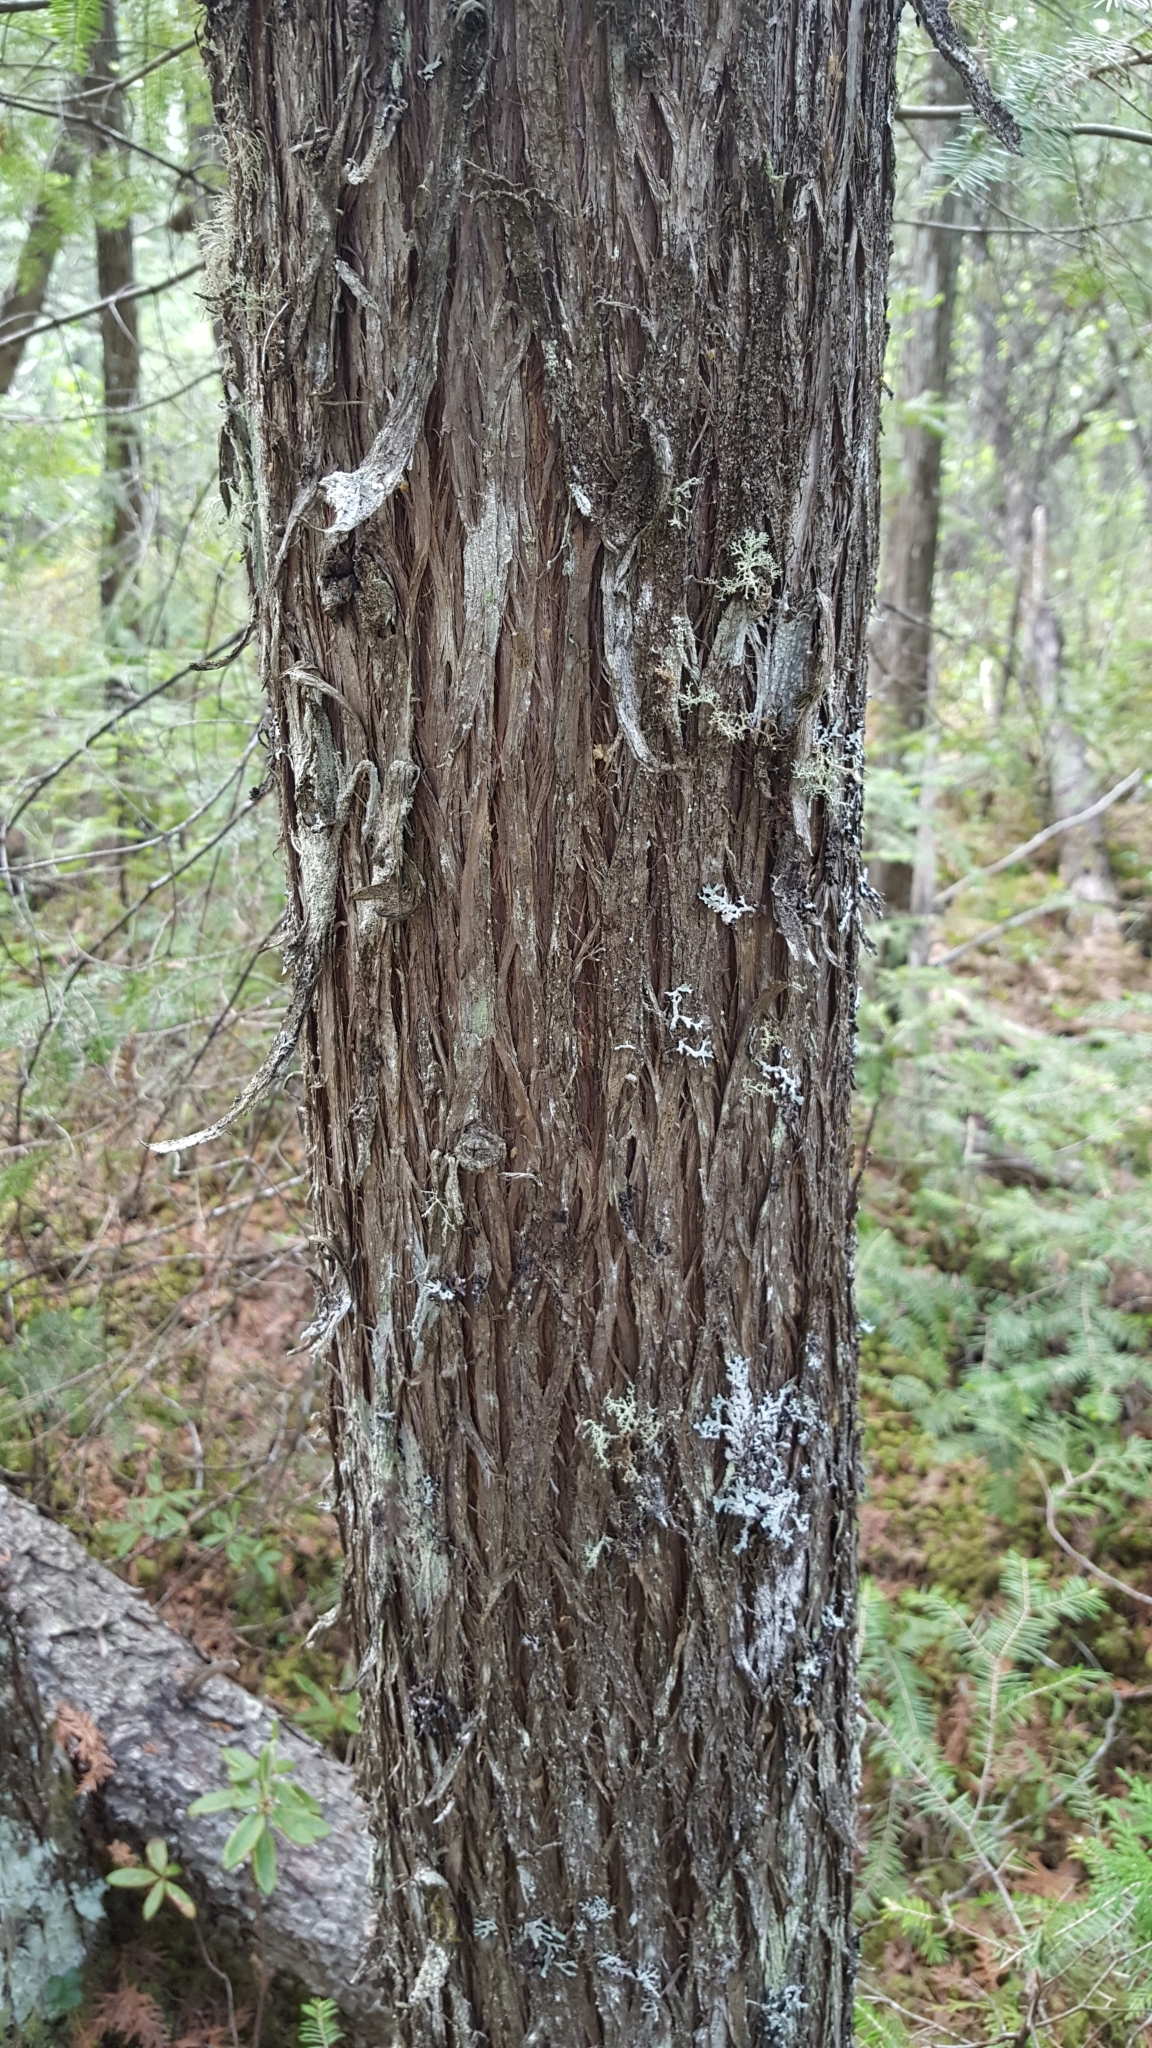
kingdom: Plantae
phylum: Tracheophyta
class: Pinopsida
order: Pinales
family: Cupressaceae
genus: Thuja
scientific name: Thuja occidentalis
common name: Northern white-cedar
